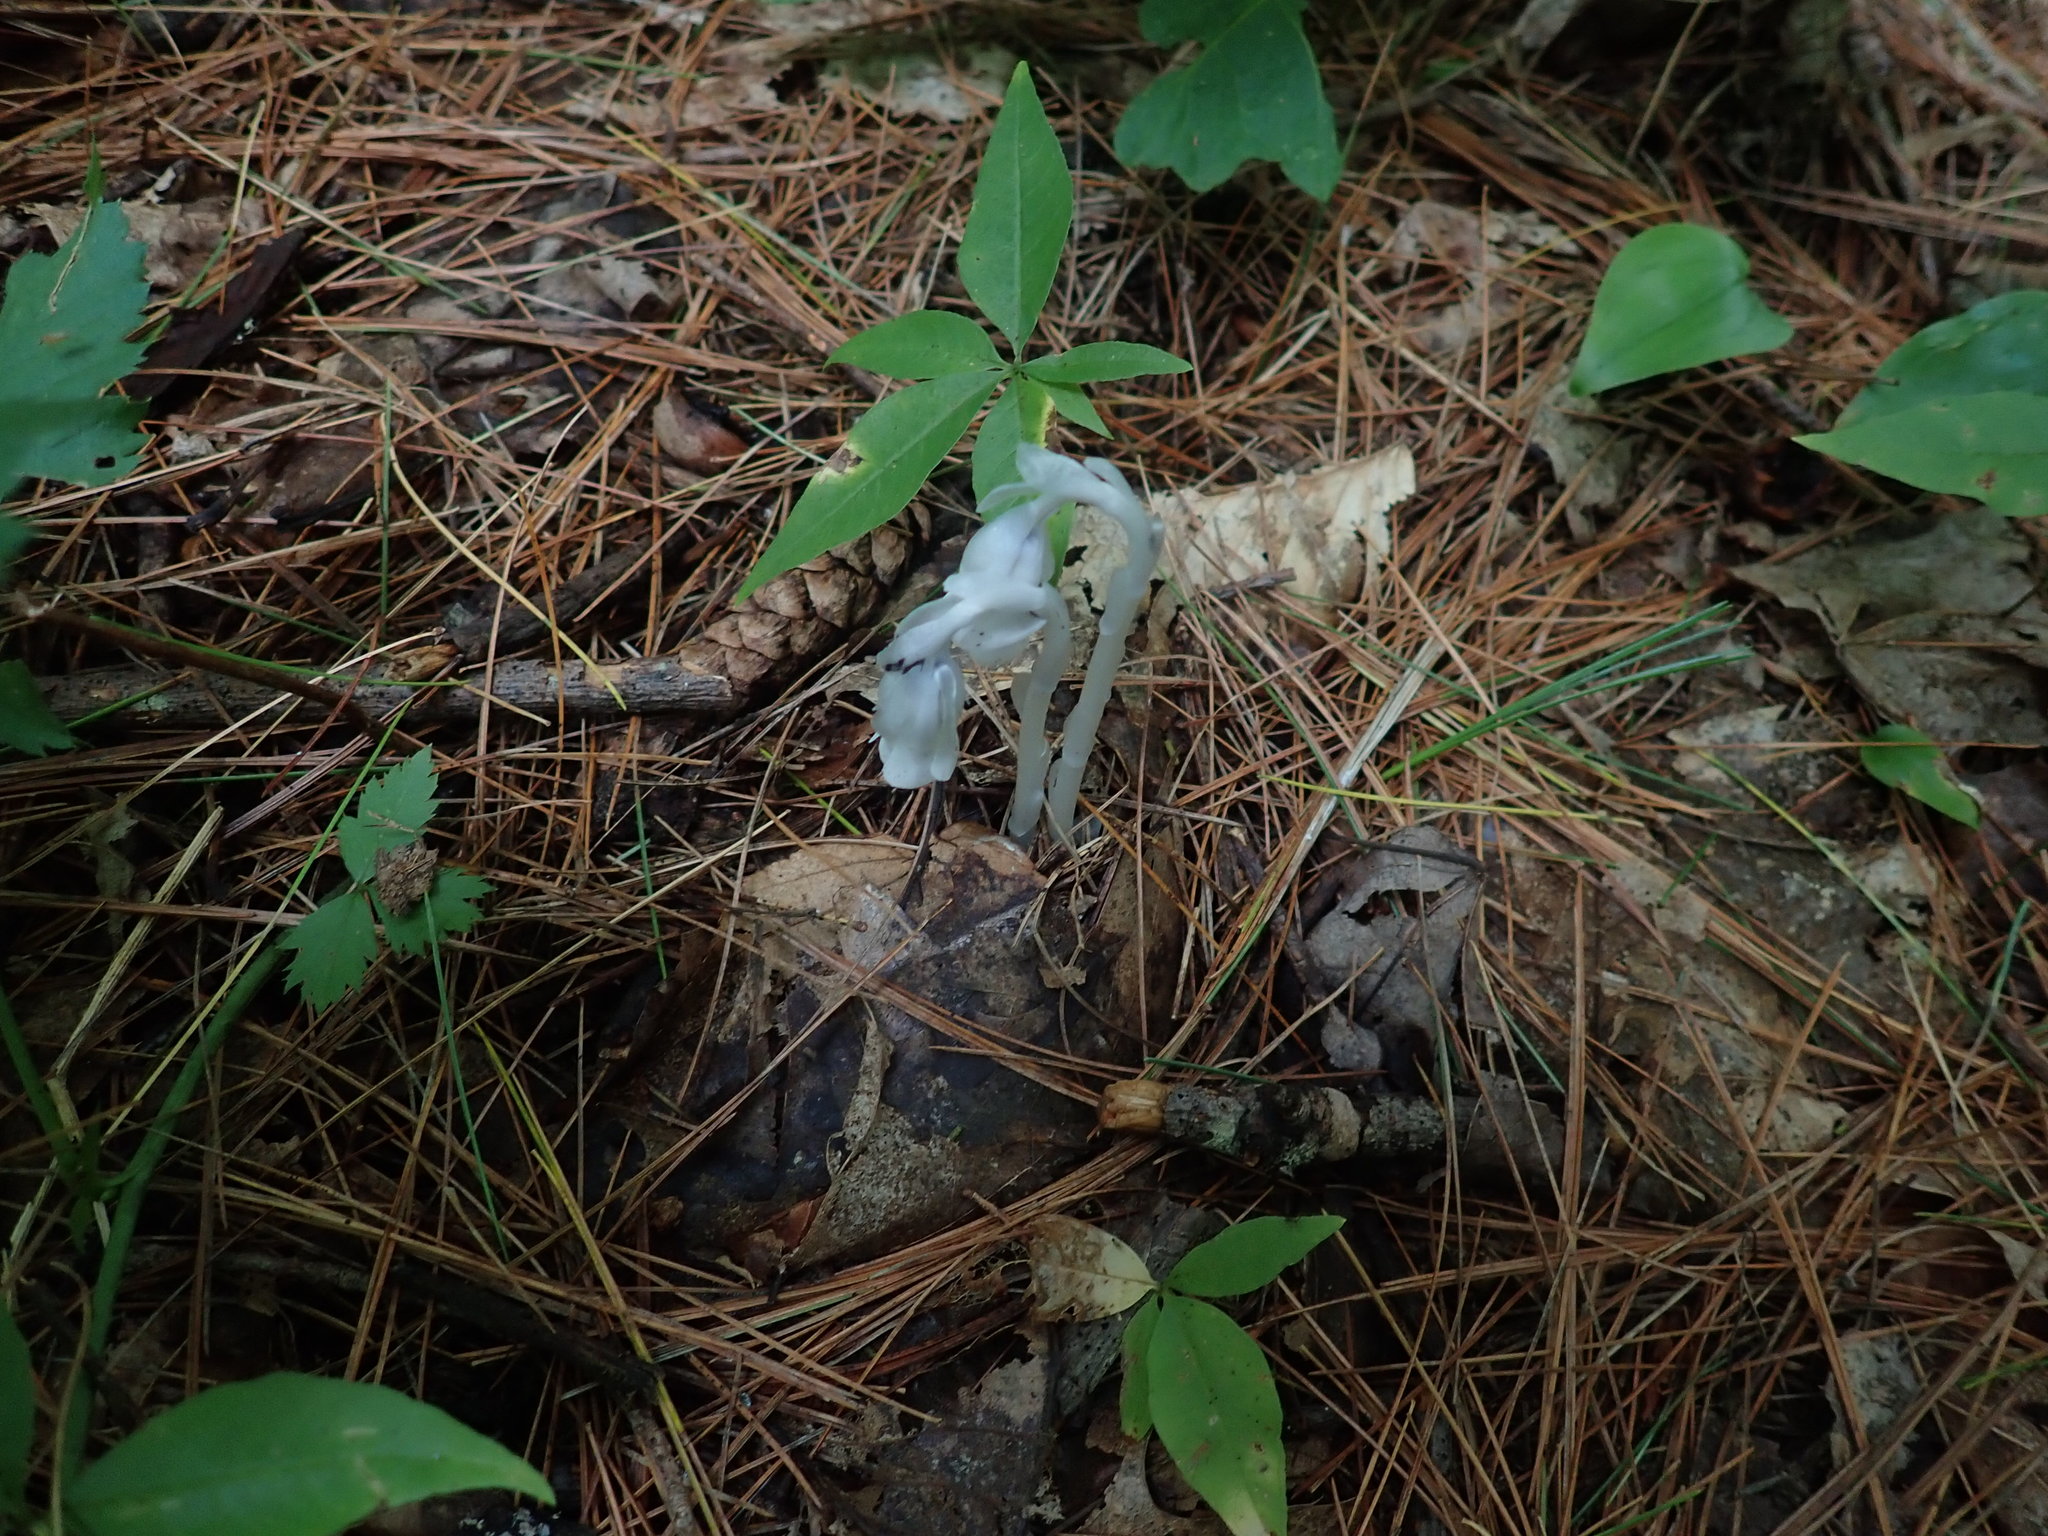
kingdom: Plantae
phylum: Tracheophyta
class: Magnoliopsida
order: Ericales
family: Ericaceae
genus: Monotropa
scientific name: Monotropa uniflora
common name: Convulsion root
